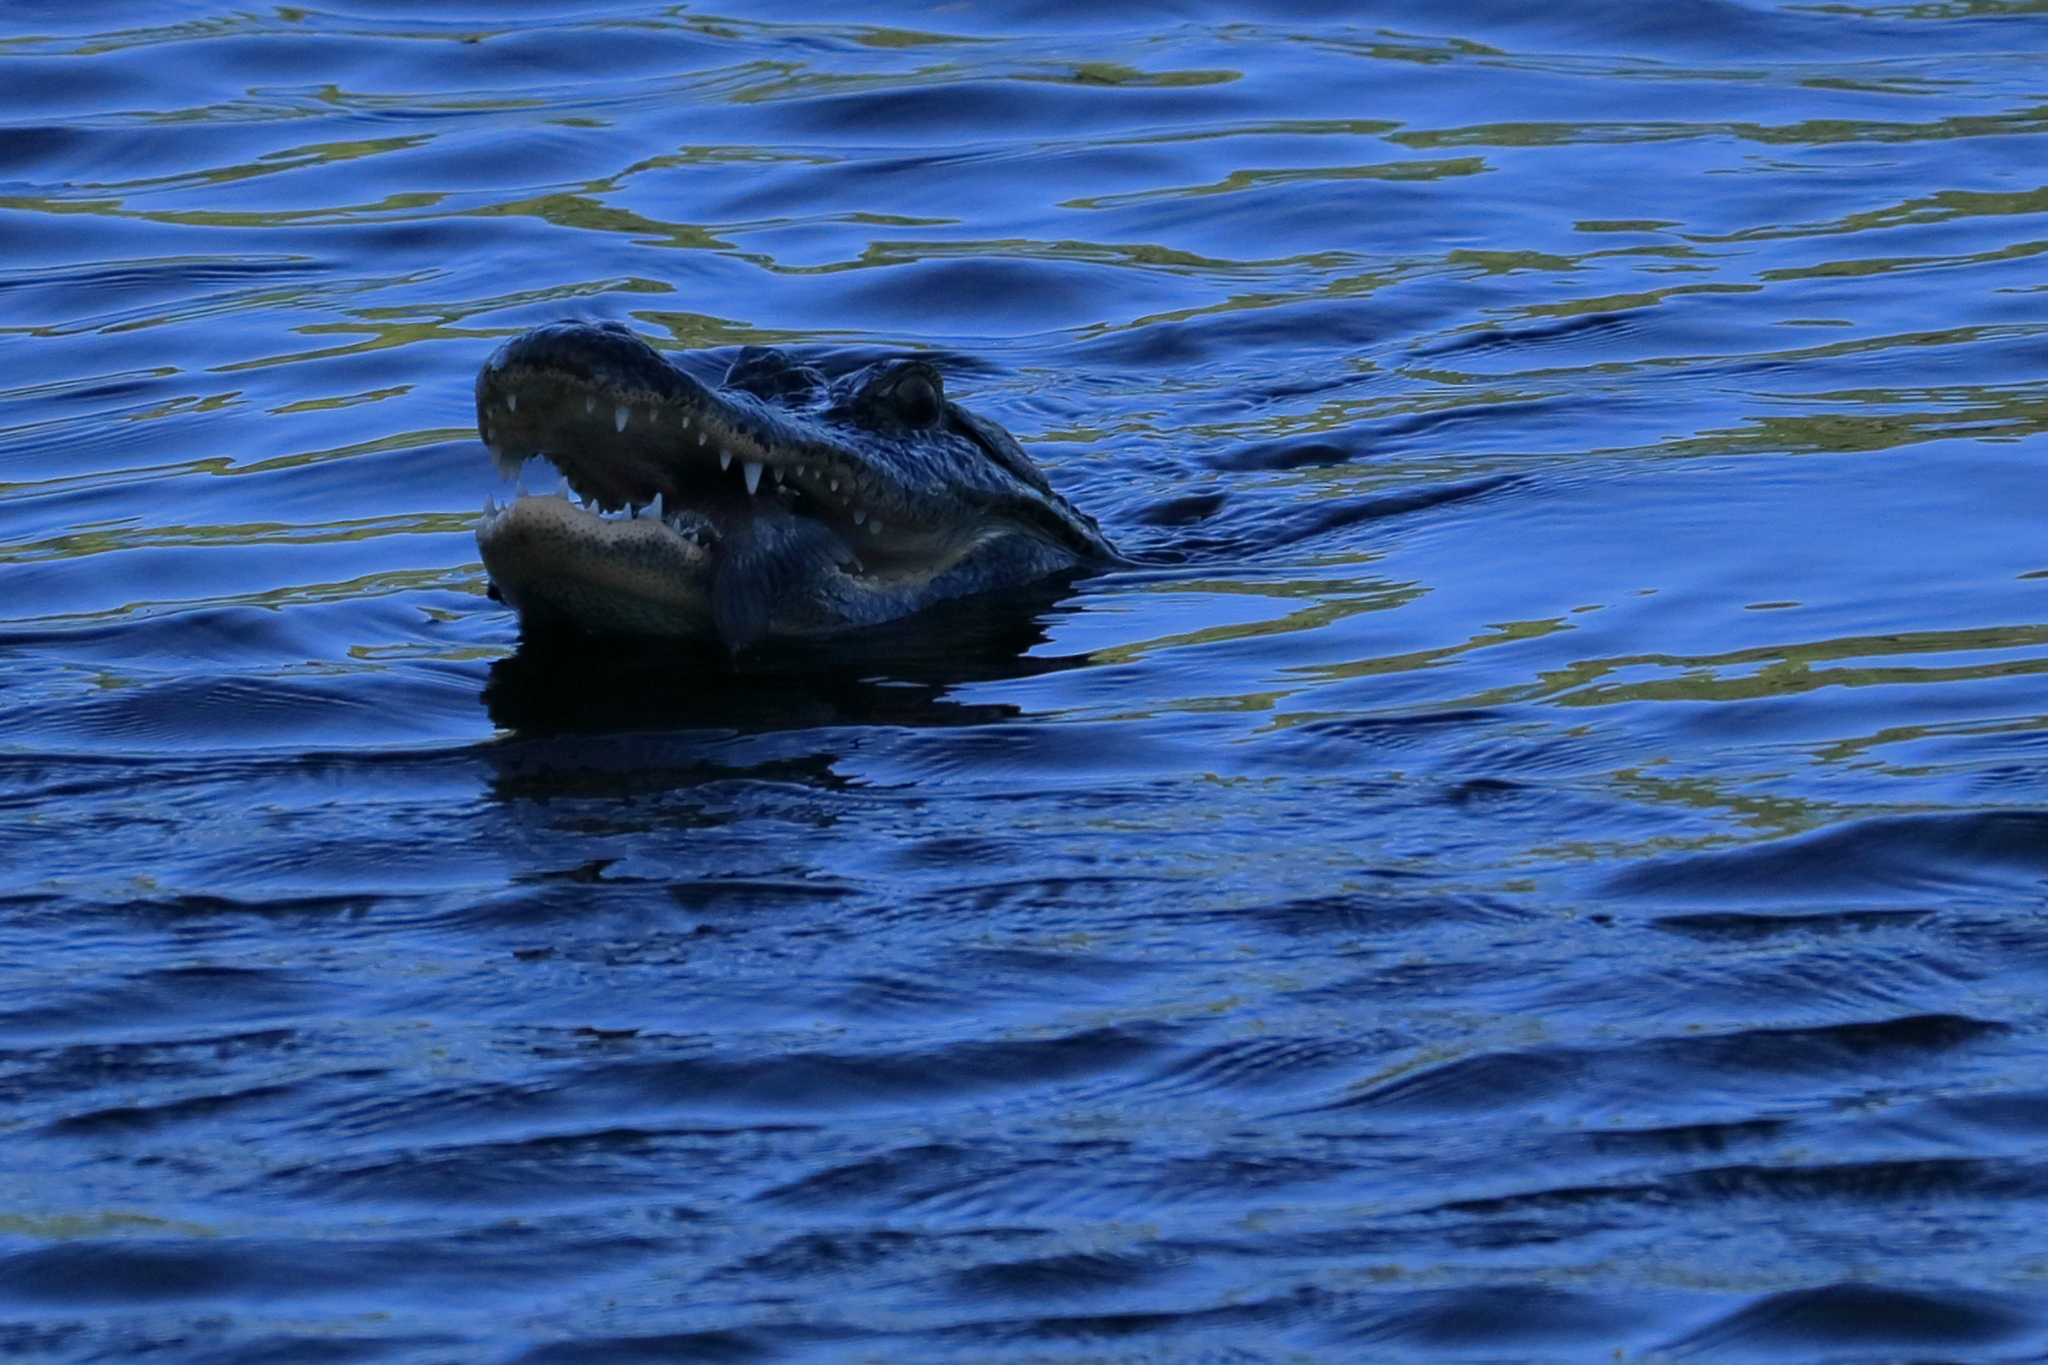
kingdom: Animalia
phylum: Chordata
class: Crocodylia
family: Alligatoridae
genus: Alligator
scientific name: Alligator mississippiensis
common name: American alligator
